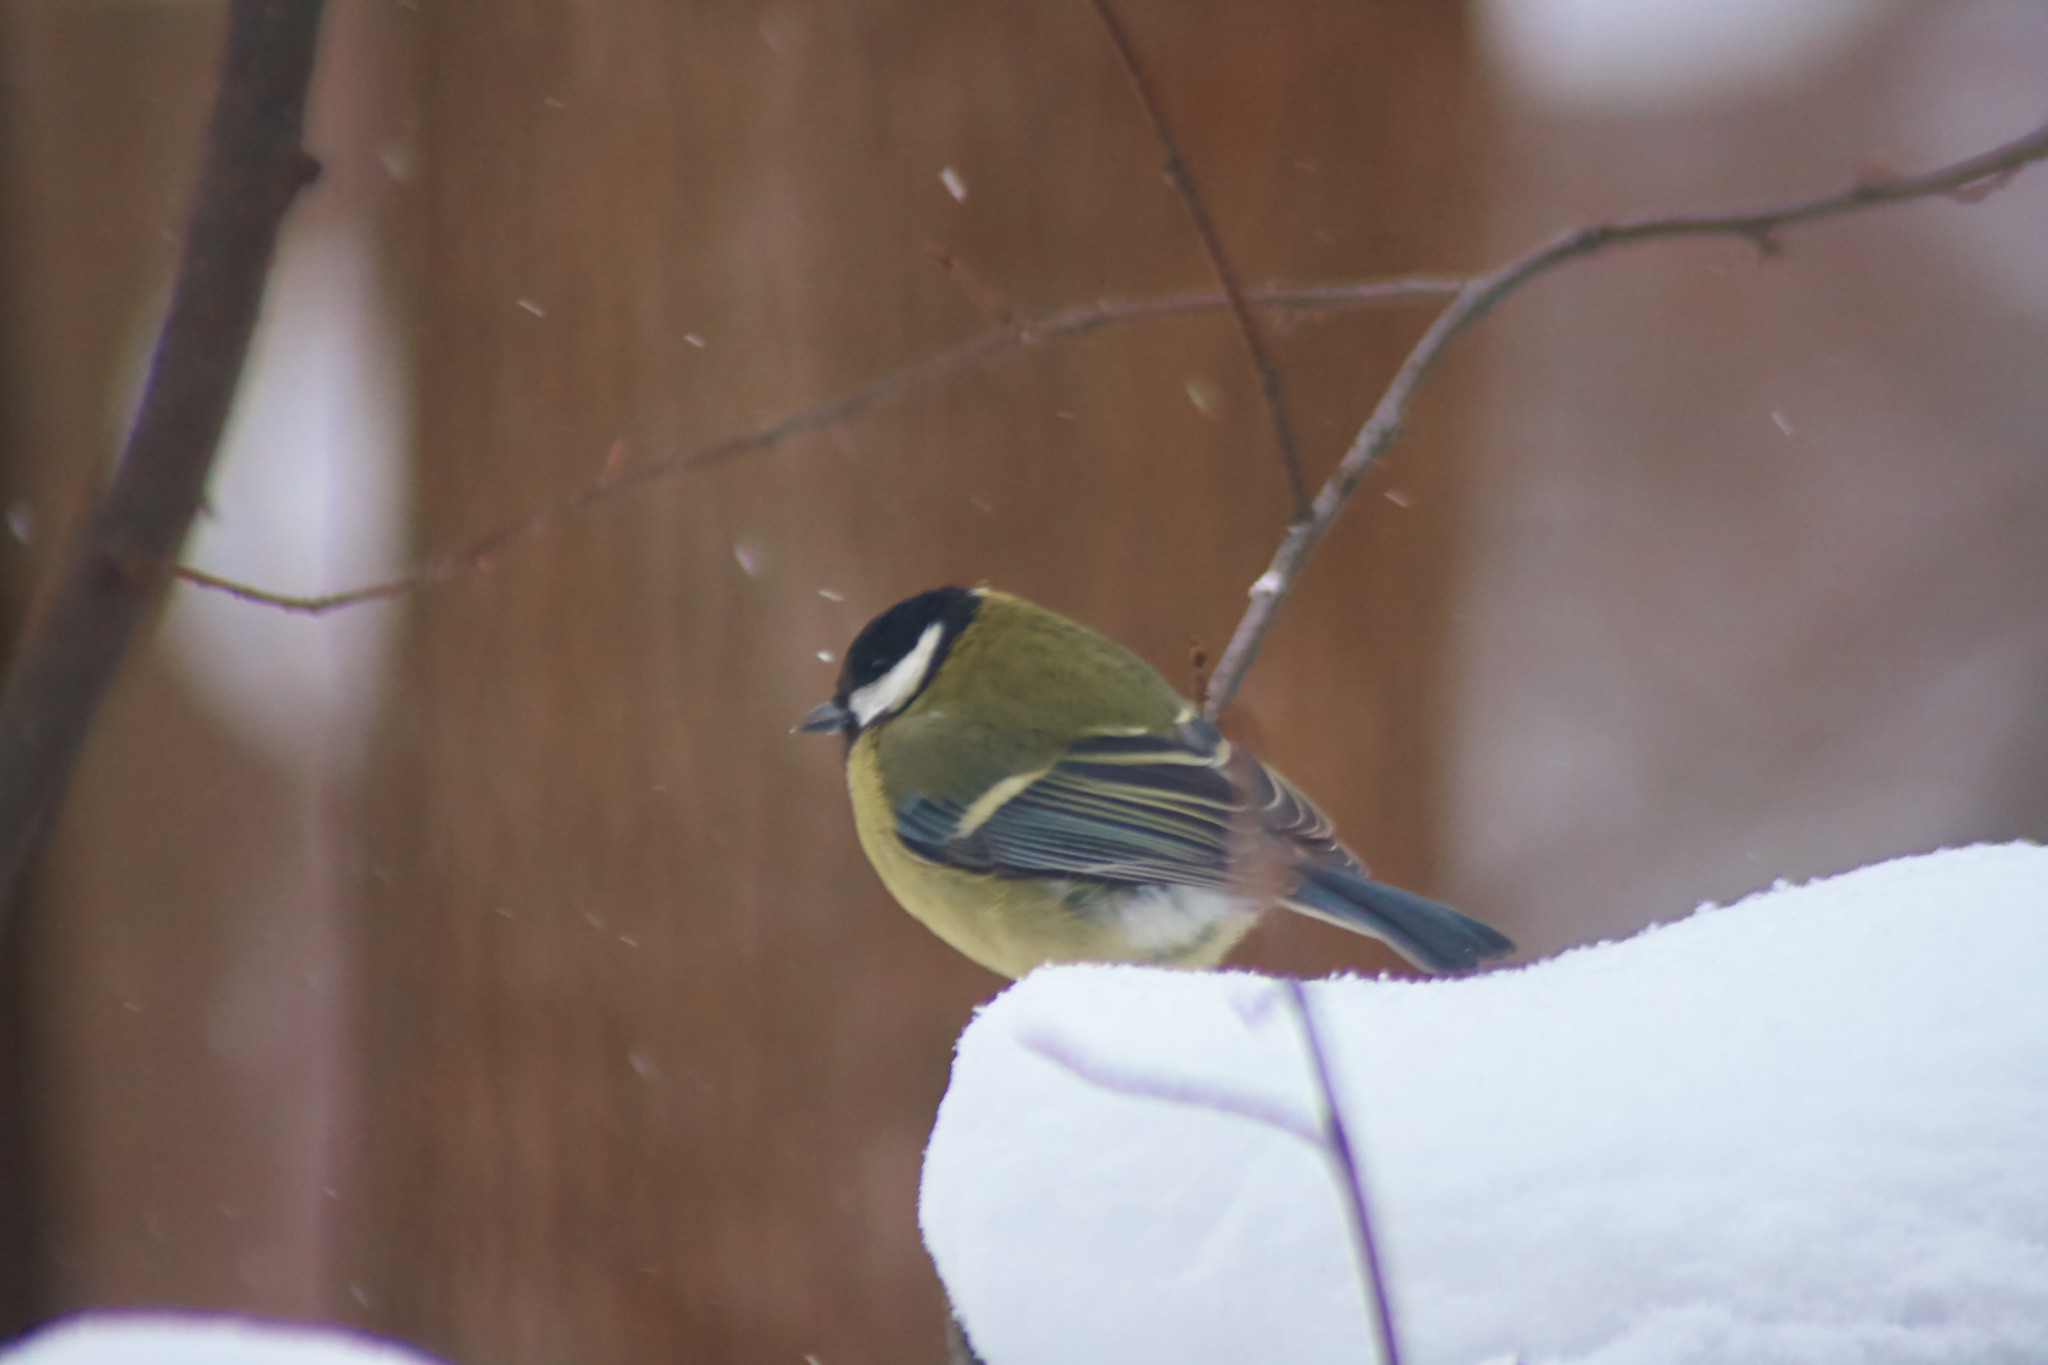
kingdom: Animalia
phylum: Chordata
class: Aves
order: Passeriformes
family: Paridae
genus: Parus
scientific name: Parus major
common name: Great tit
